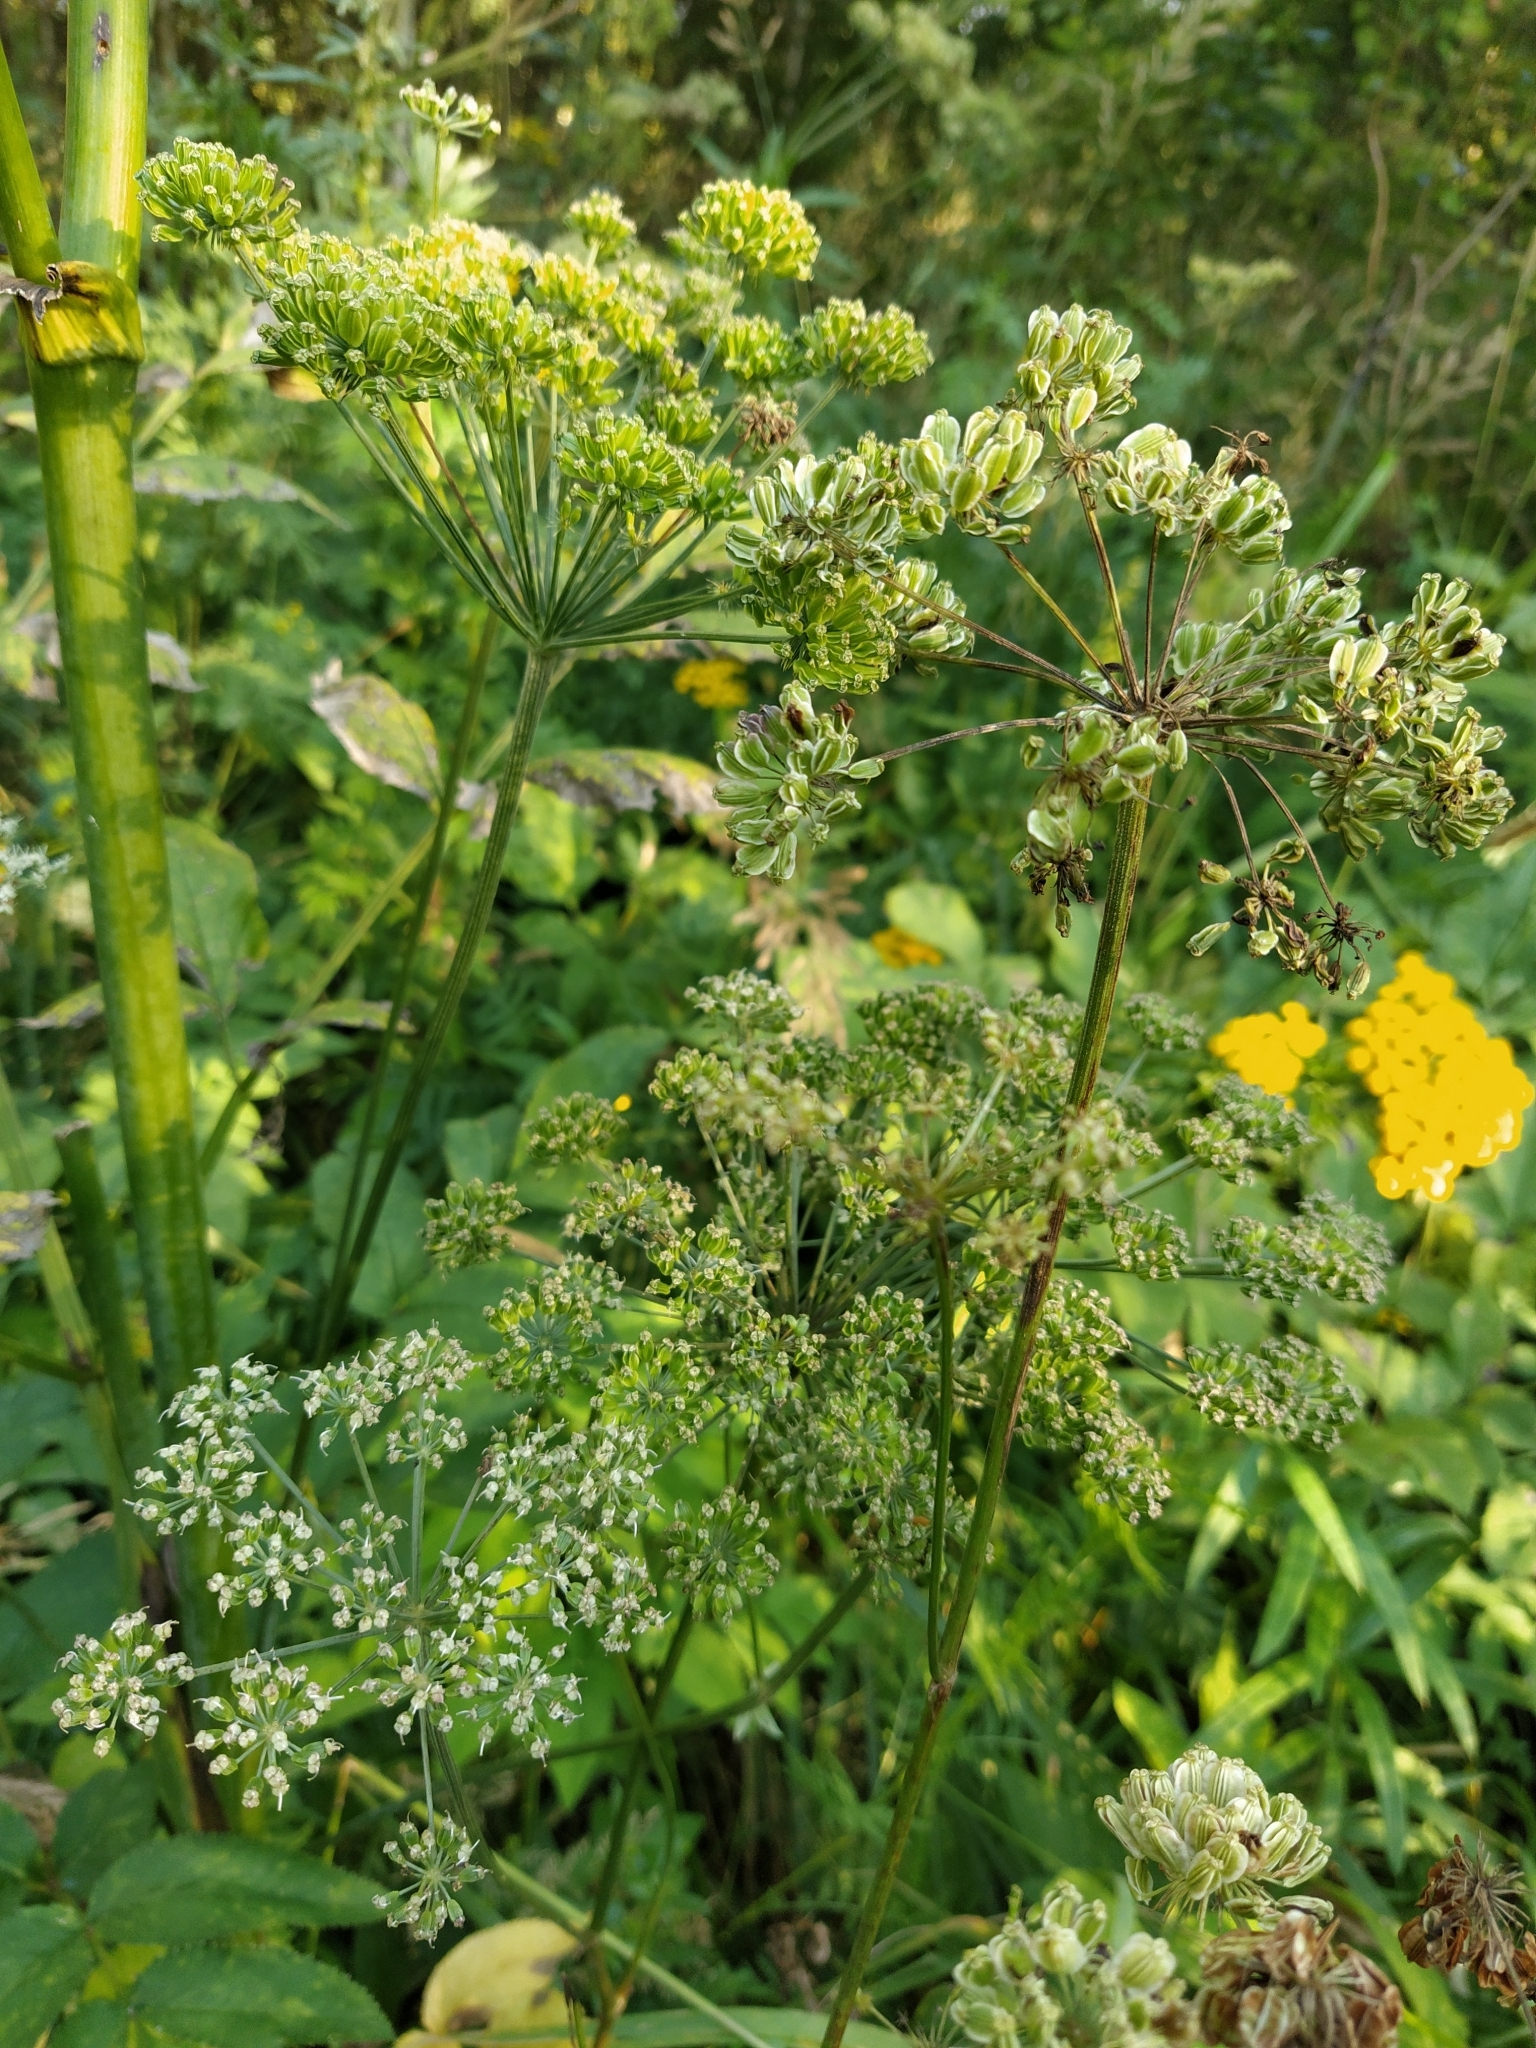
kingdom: Plantae
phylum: Tracheophyta
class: Magnoliopsida
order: Apiales
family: Apiaceae
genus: Angelica
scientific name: Angelica sylvestris
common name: Wild angelica
